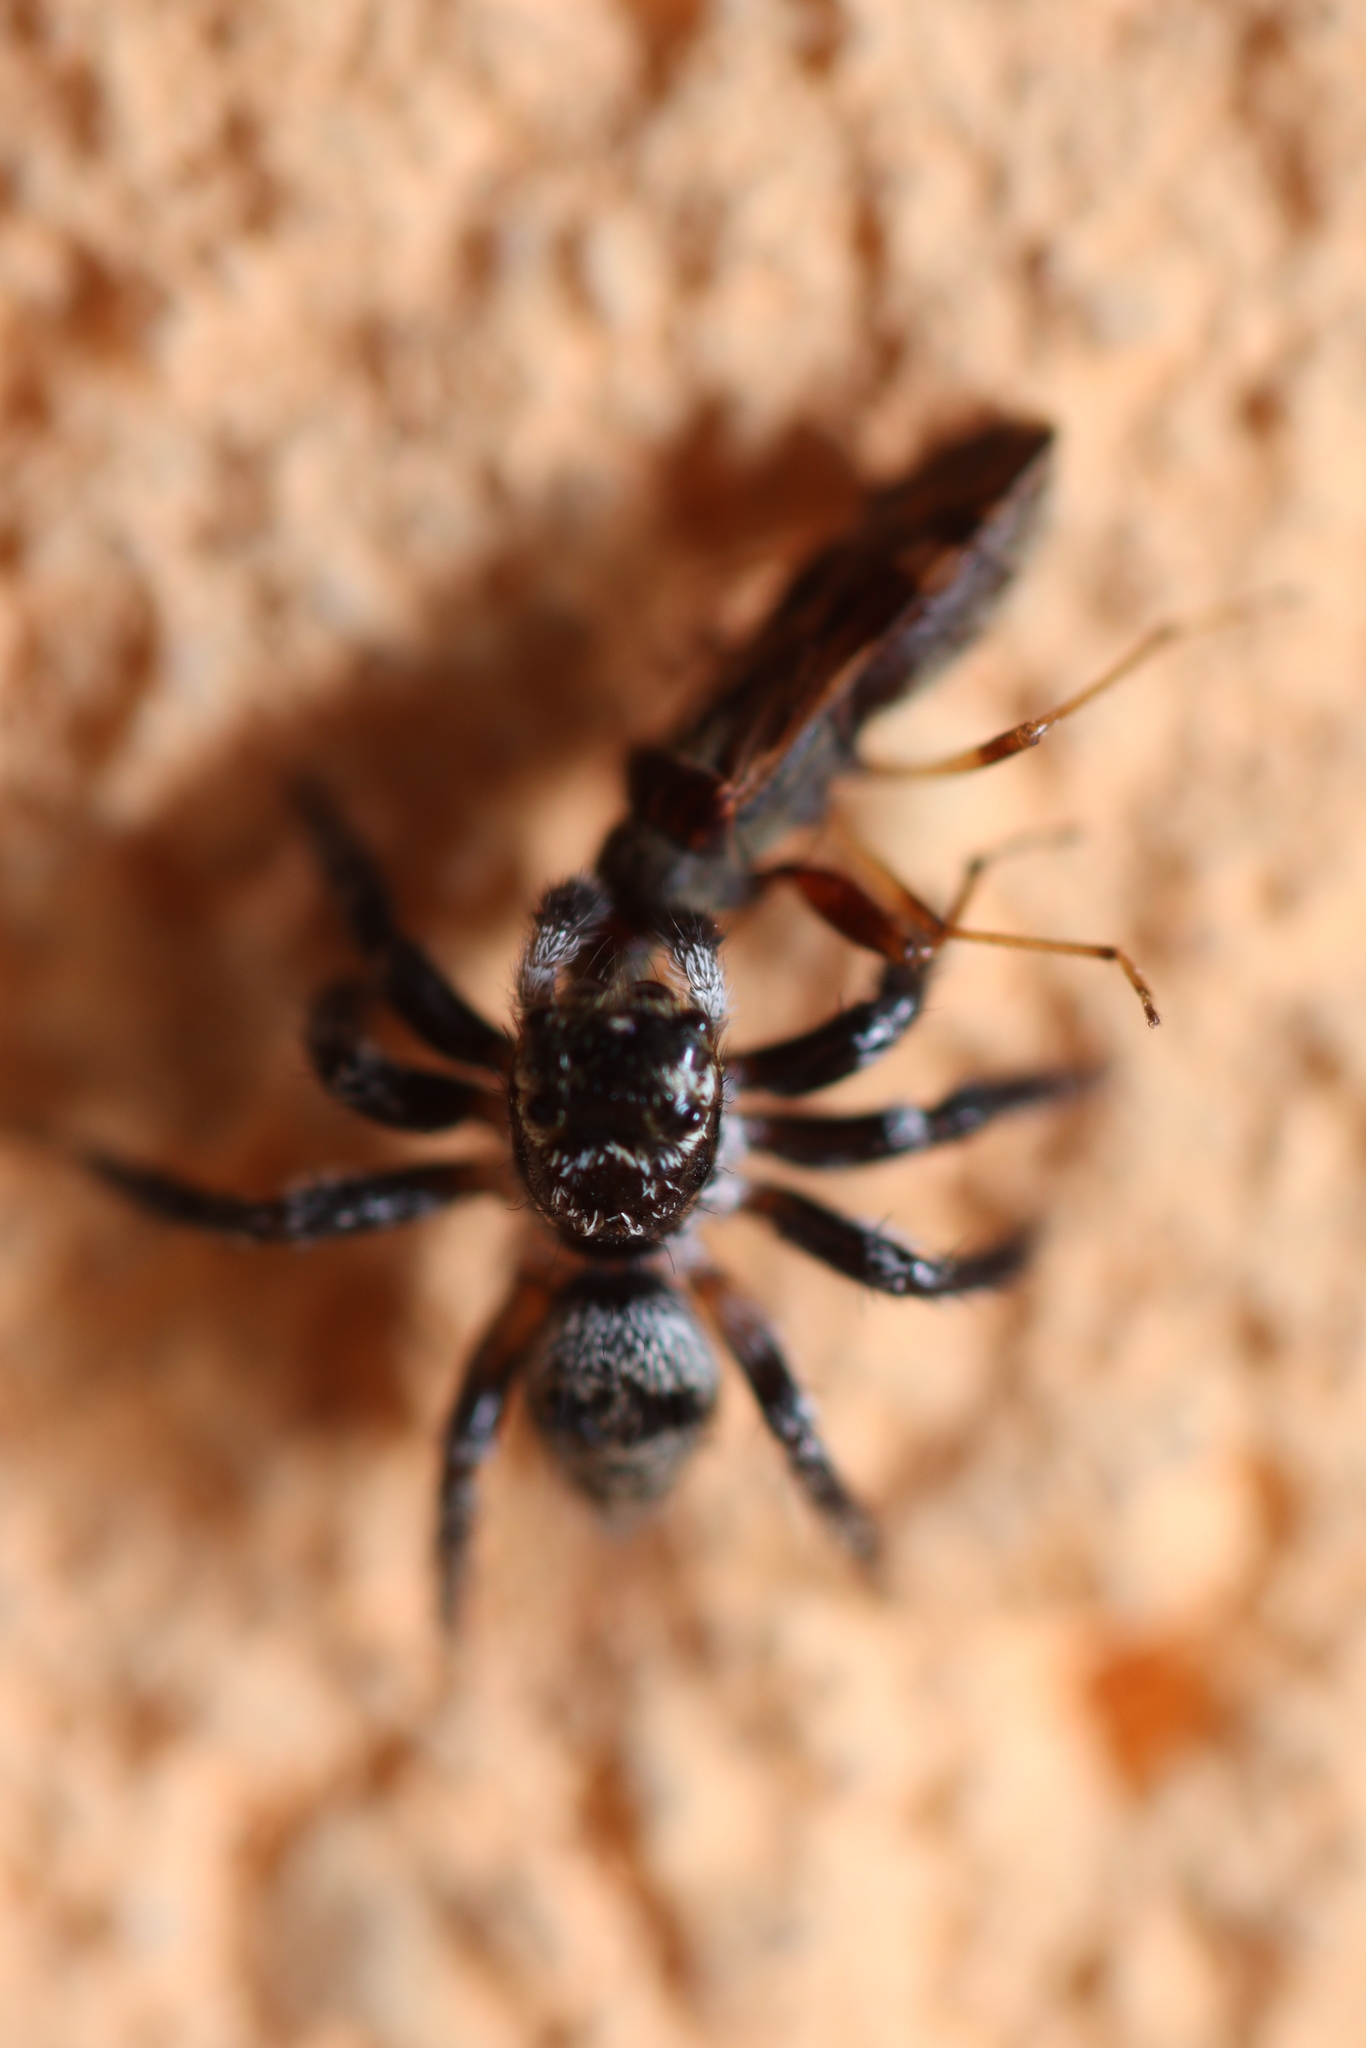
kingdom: Animalia
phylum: Arthropoda
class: Arachnida
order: Araneae
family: Salticidae
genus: Corythalia
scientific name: Corythalia conferta
